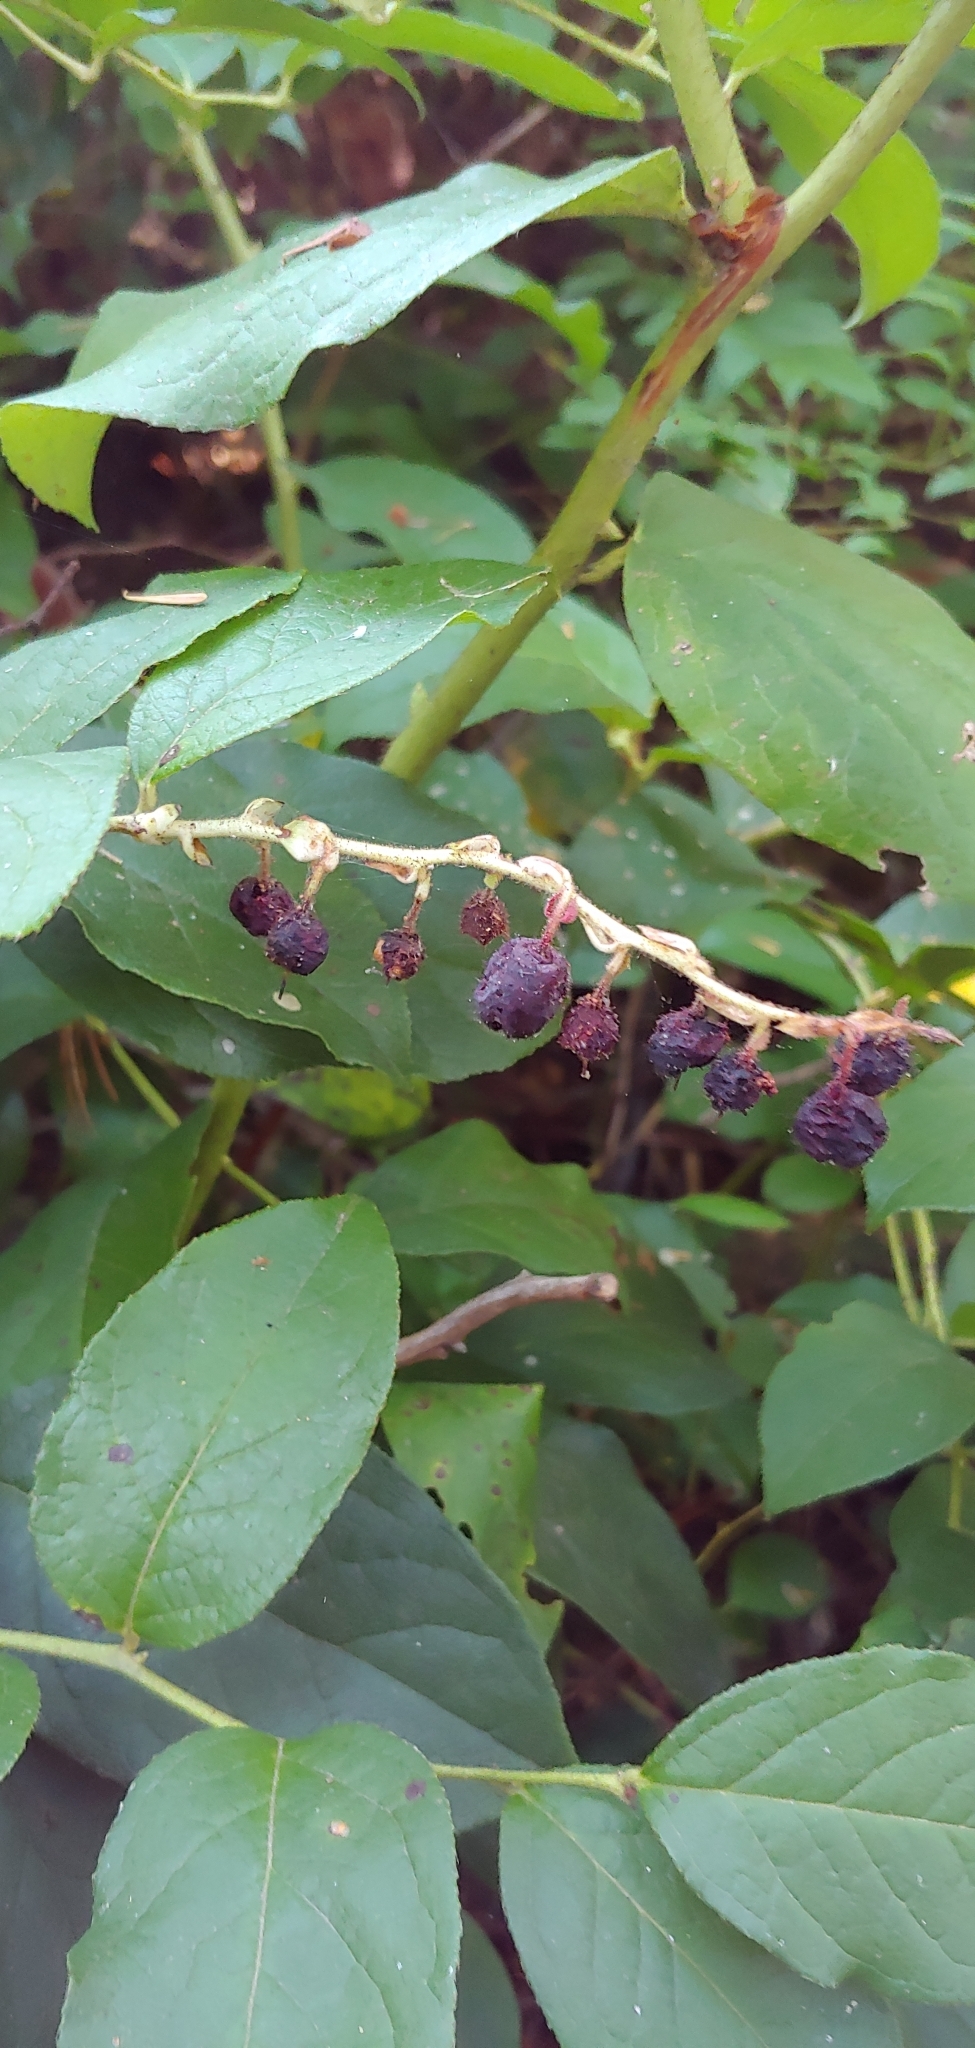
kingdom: Plantae
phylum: Tracheophyta
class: Magnoliopsida
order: Ericales
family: Ericaceae
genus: Gaultheria
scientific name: Gaultheria shallon
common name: Shallon
